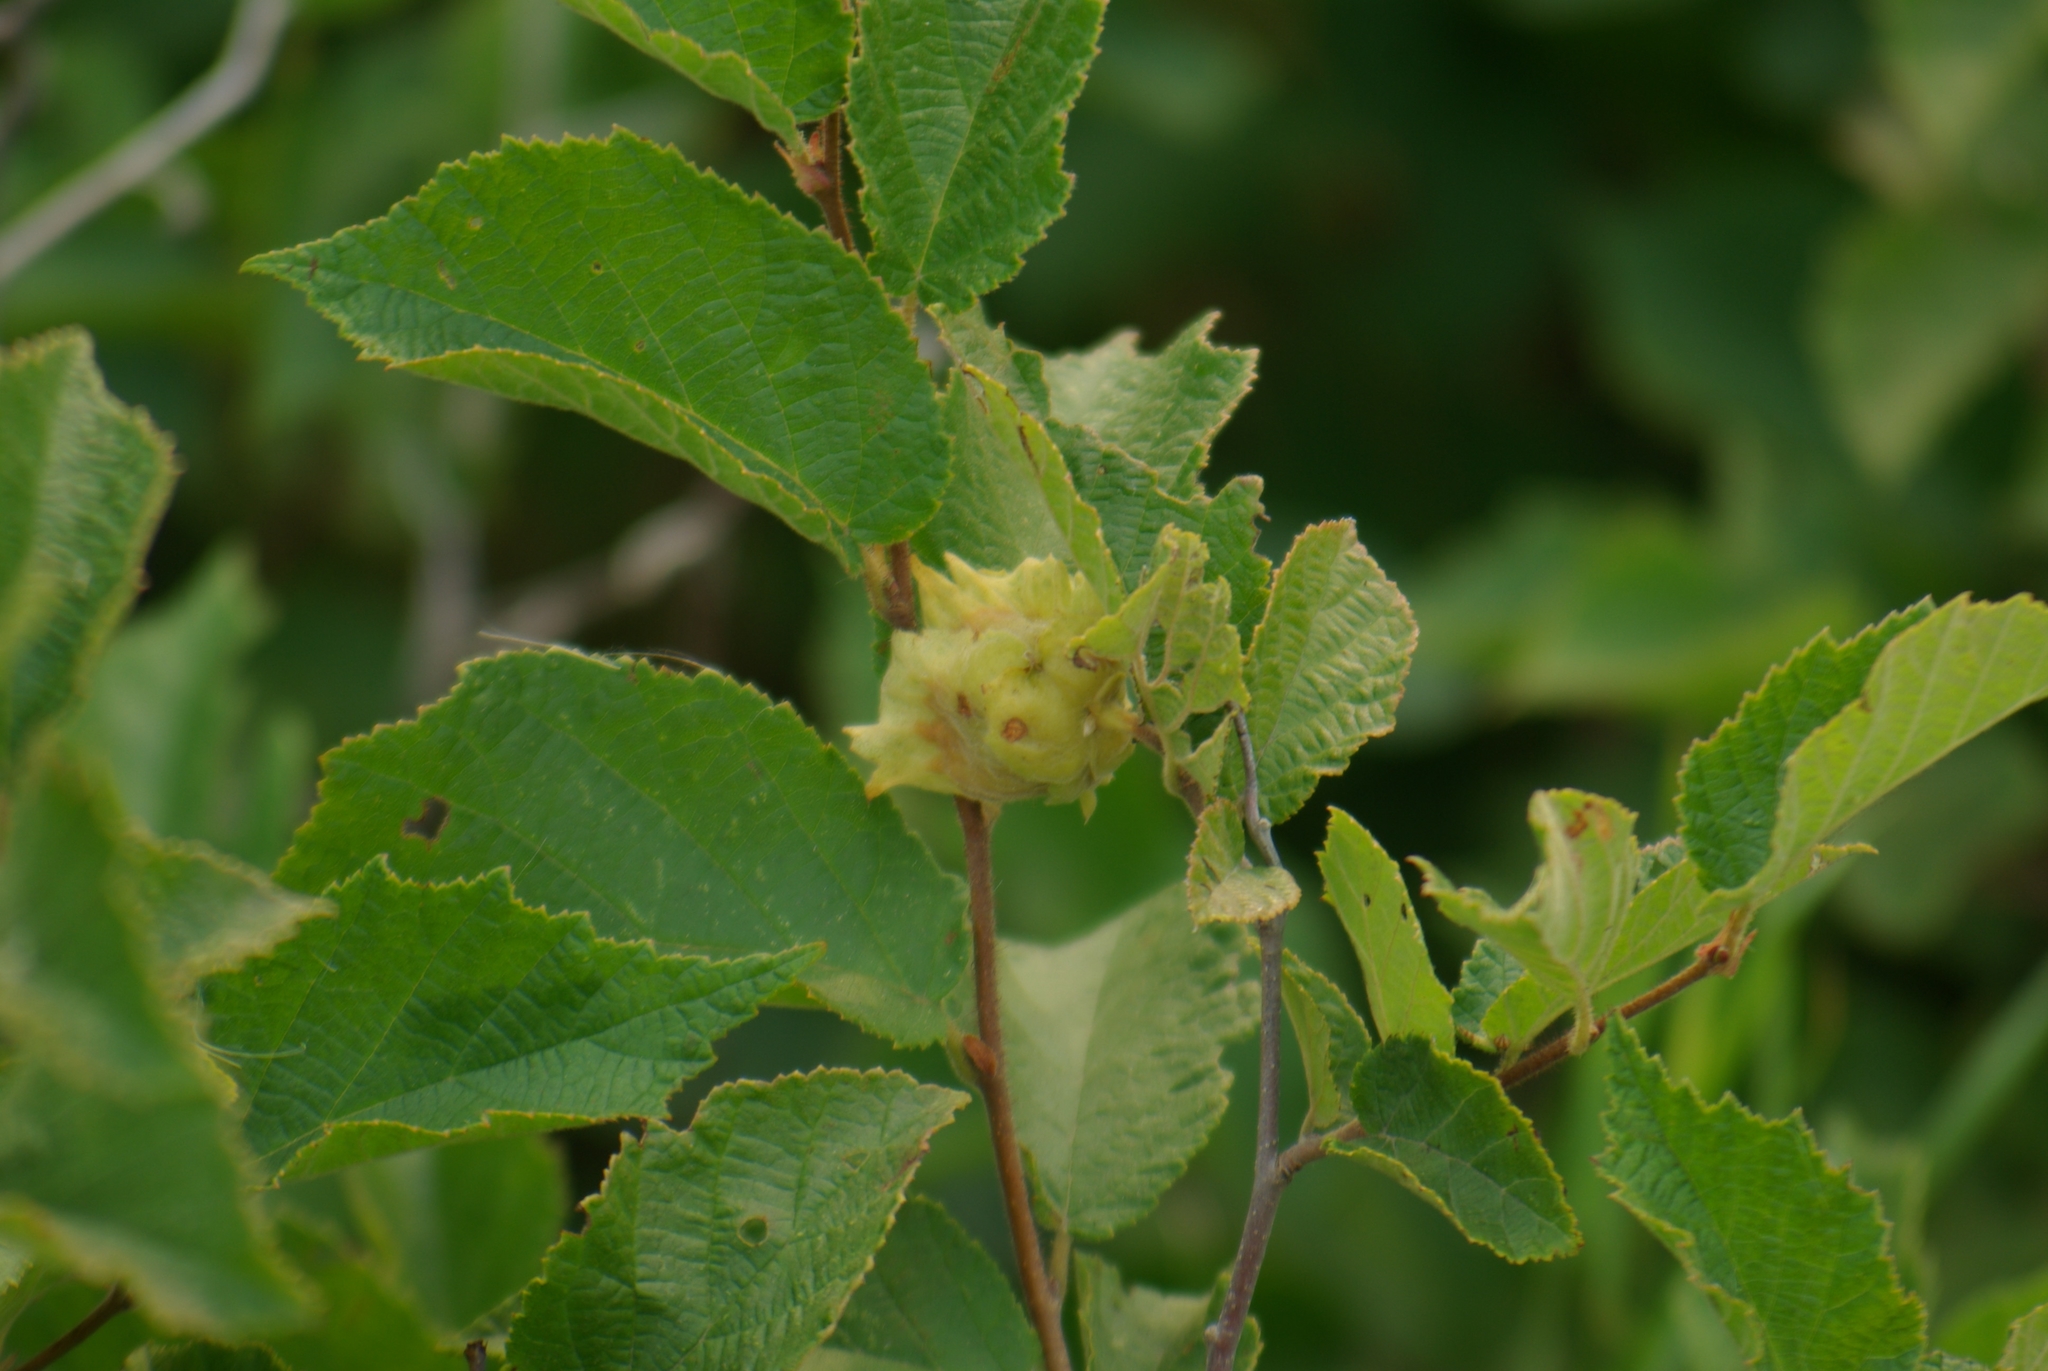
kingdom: Plantae
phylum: Tracheophyta
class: Magnoliopsida
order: Fagales
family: Betulaceae
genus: Corylus
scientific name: Corylus americana
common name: American hazel
